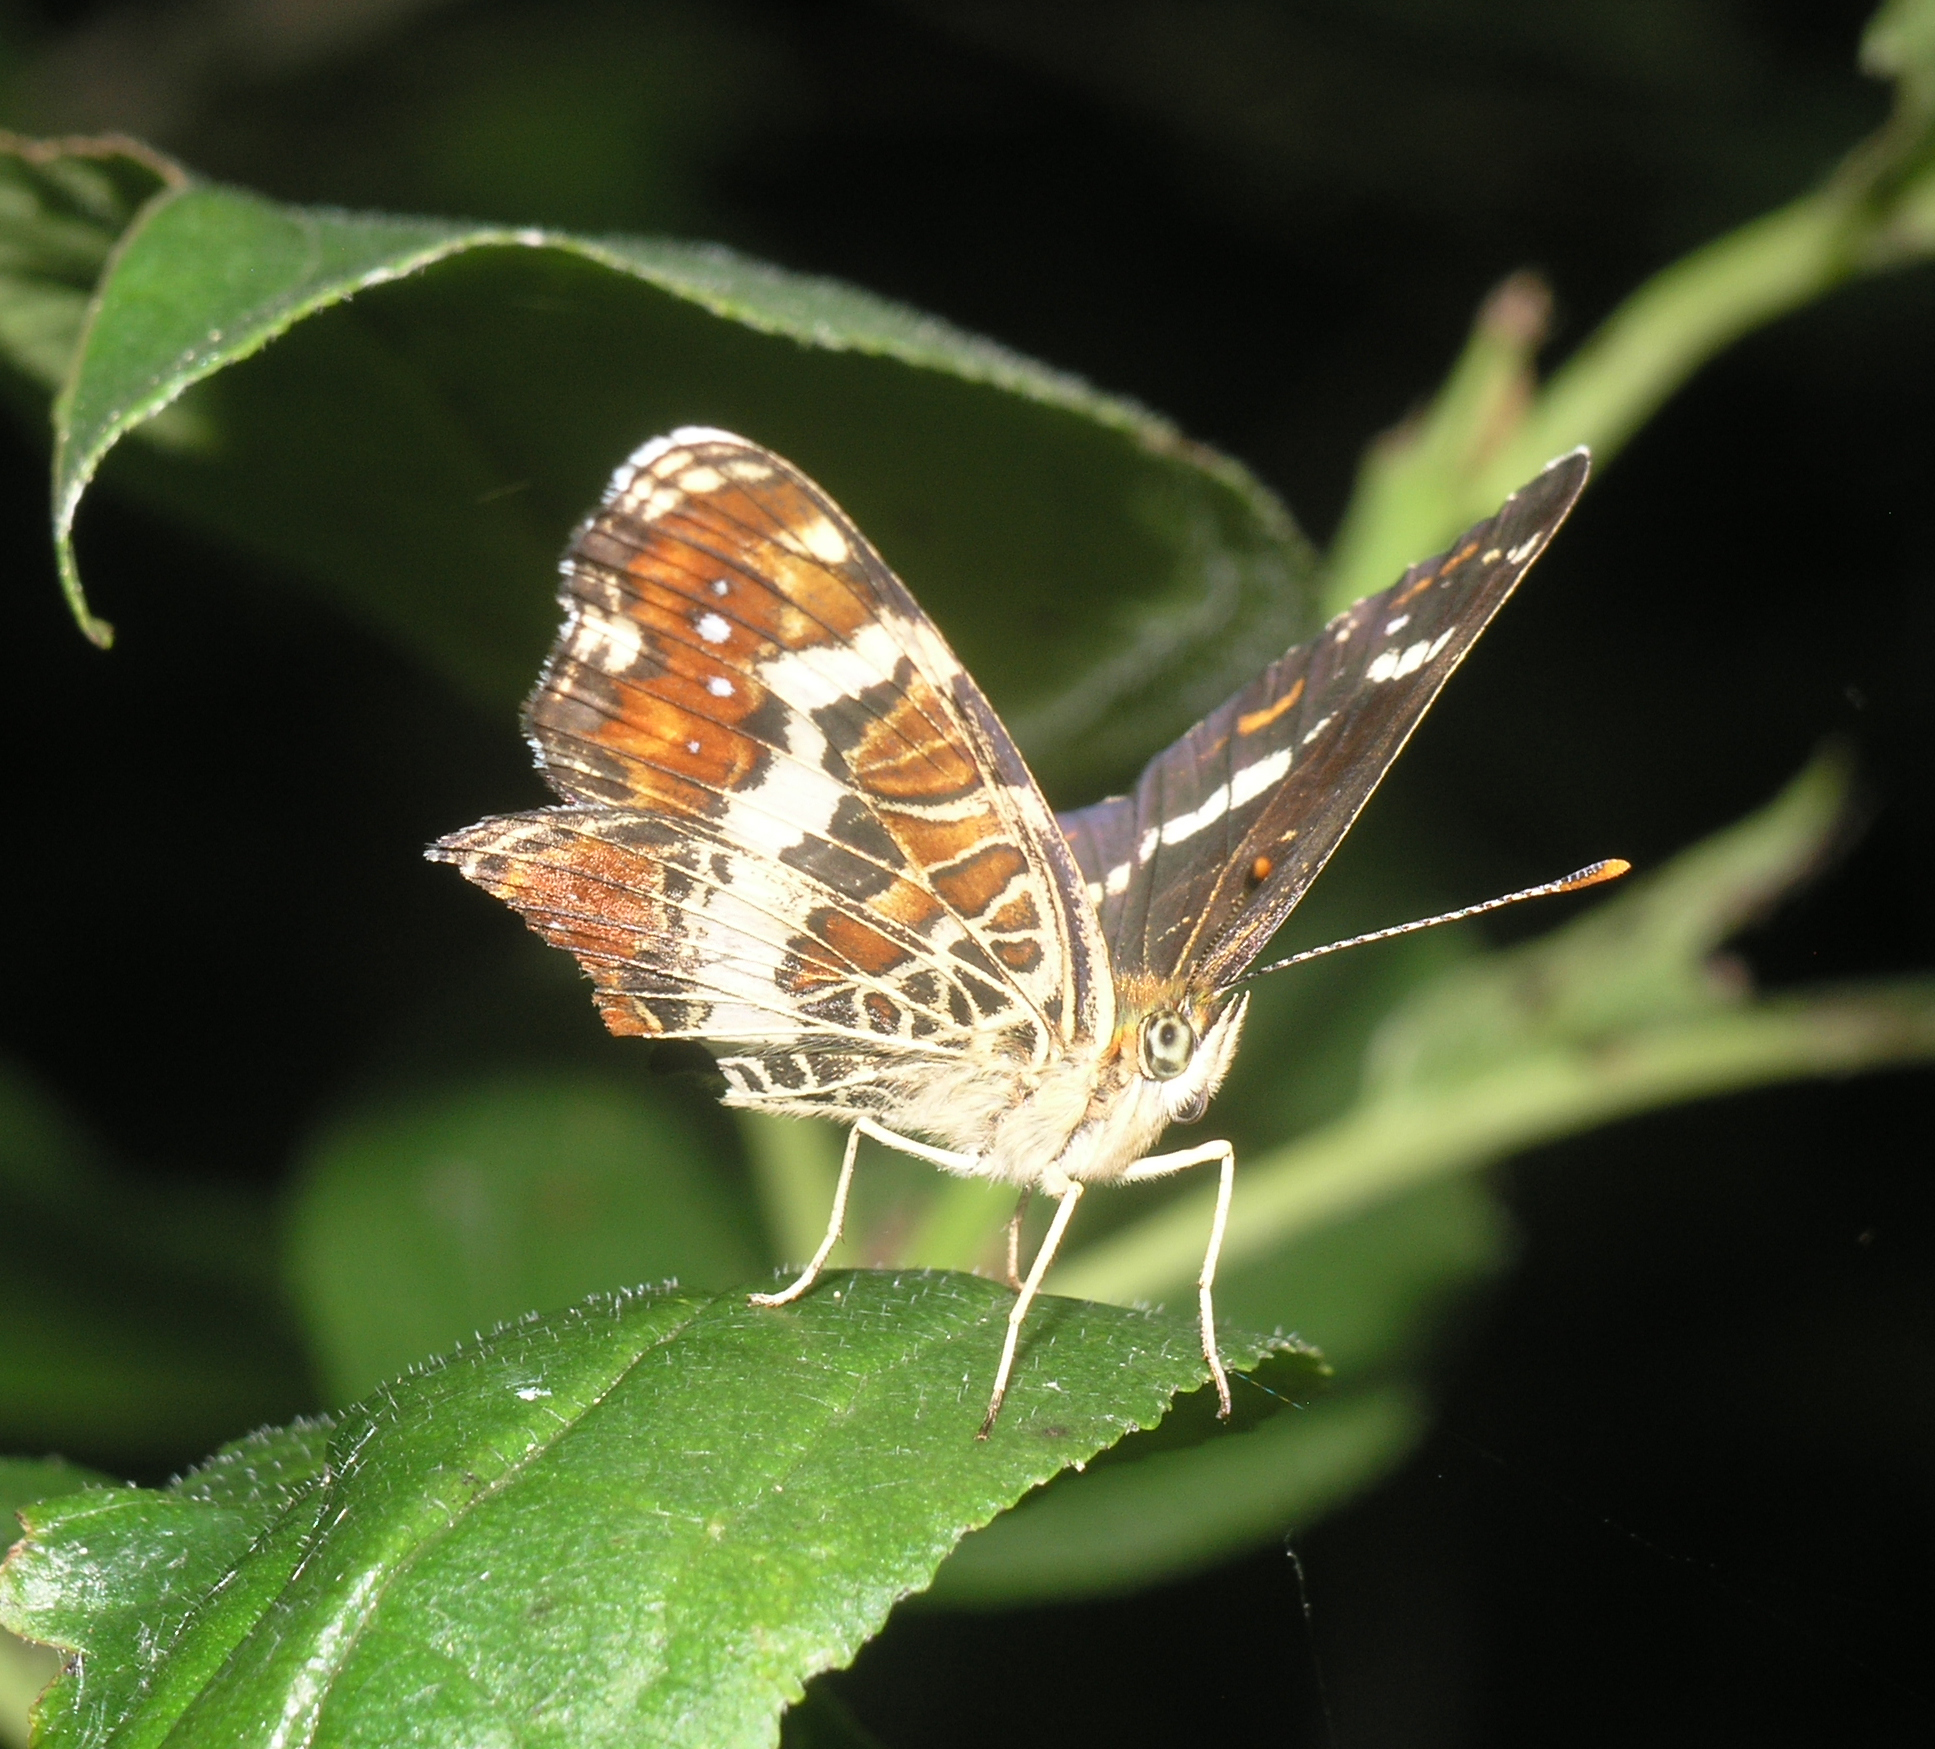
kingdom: Animalia
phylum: Arthropoda
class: Insecta
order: Lepidoptera
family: Nymphalidae
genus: Araschnia
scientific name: Araschnia levana
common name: Map butterfly
